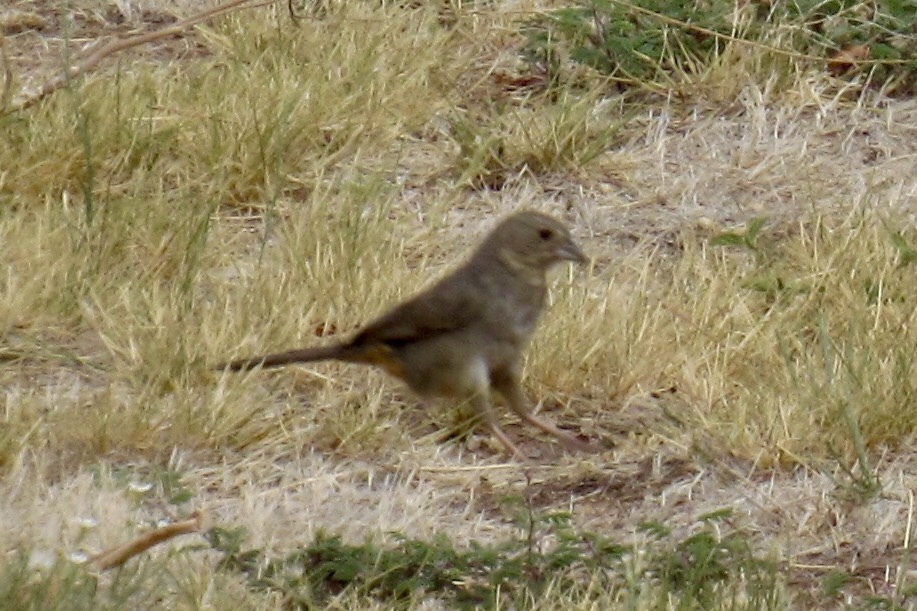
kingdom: Animalia
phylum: Chordata
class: Aves
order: Passeriformes
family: Passerellidae
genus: Melozone
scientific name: Melozone fusca
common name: Canyon towhee
